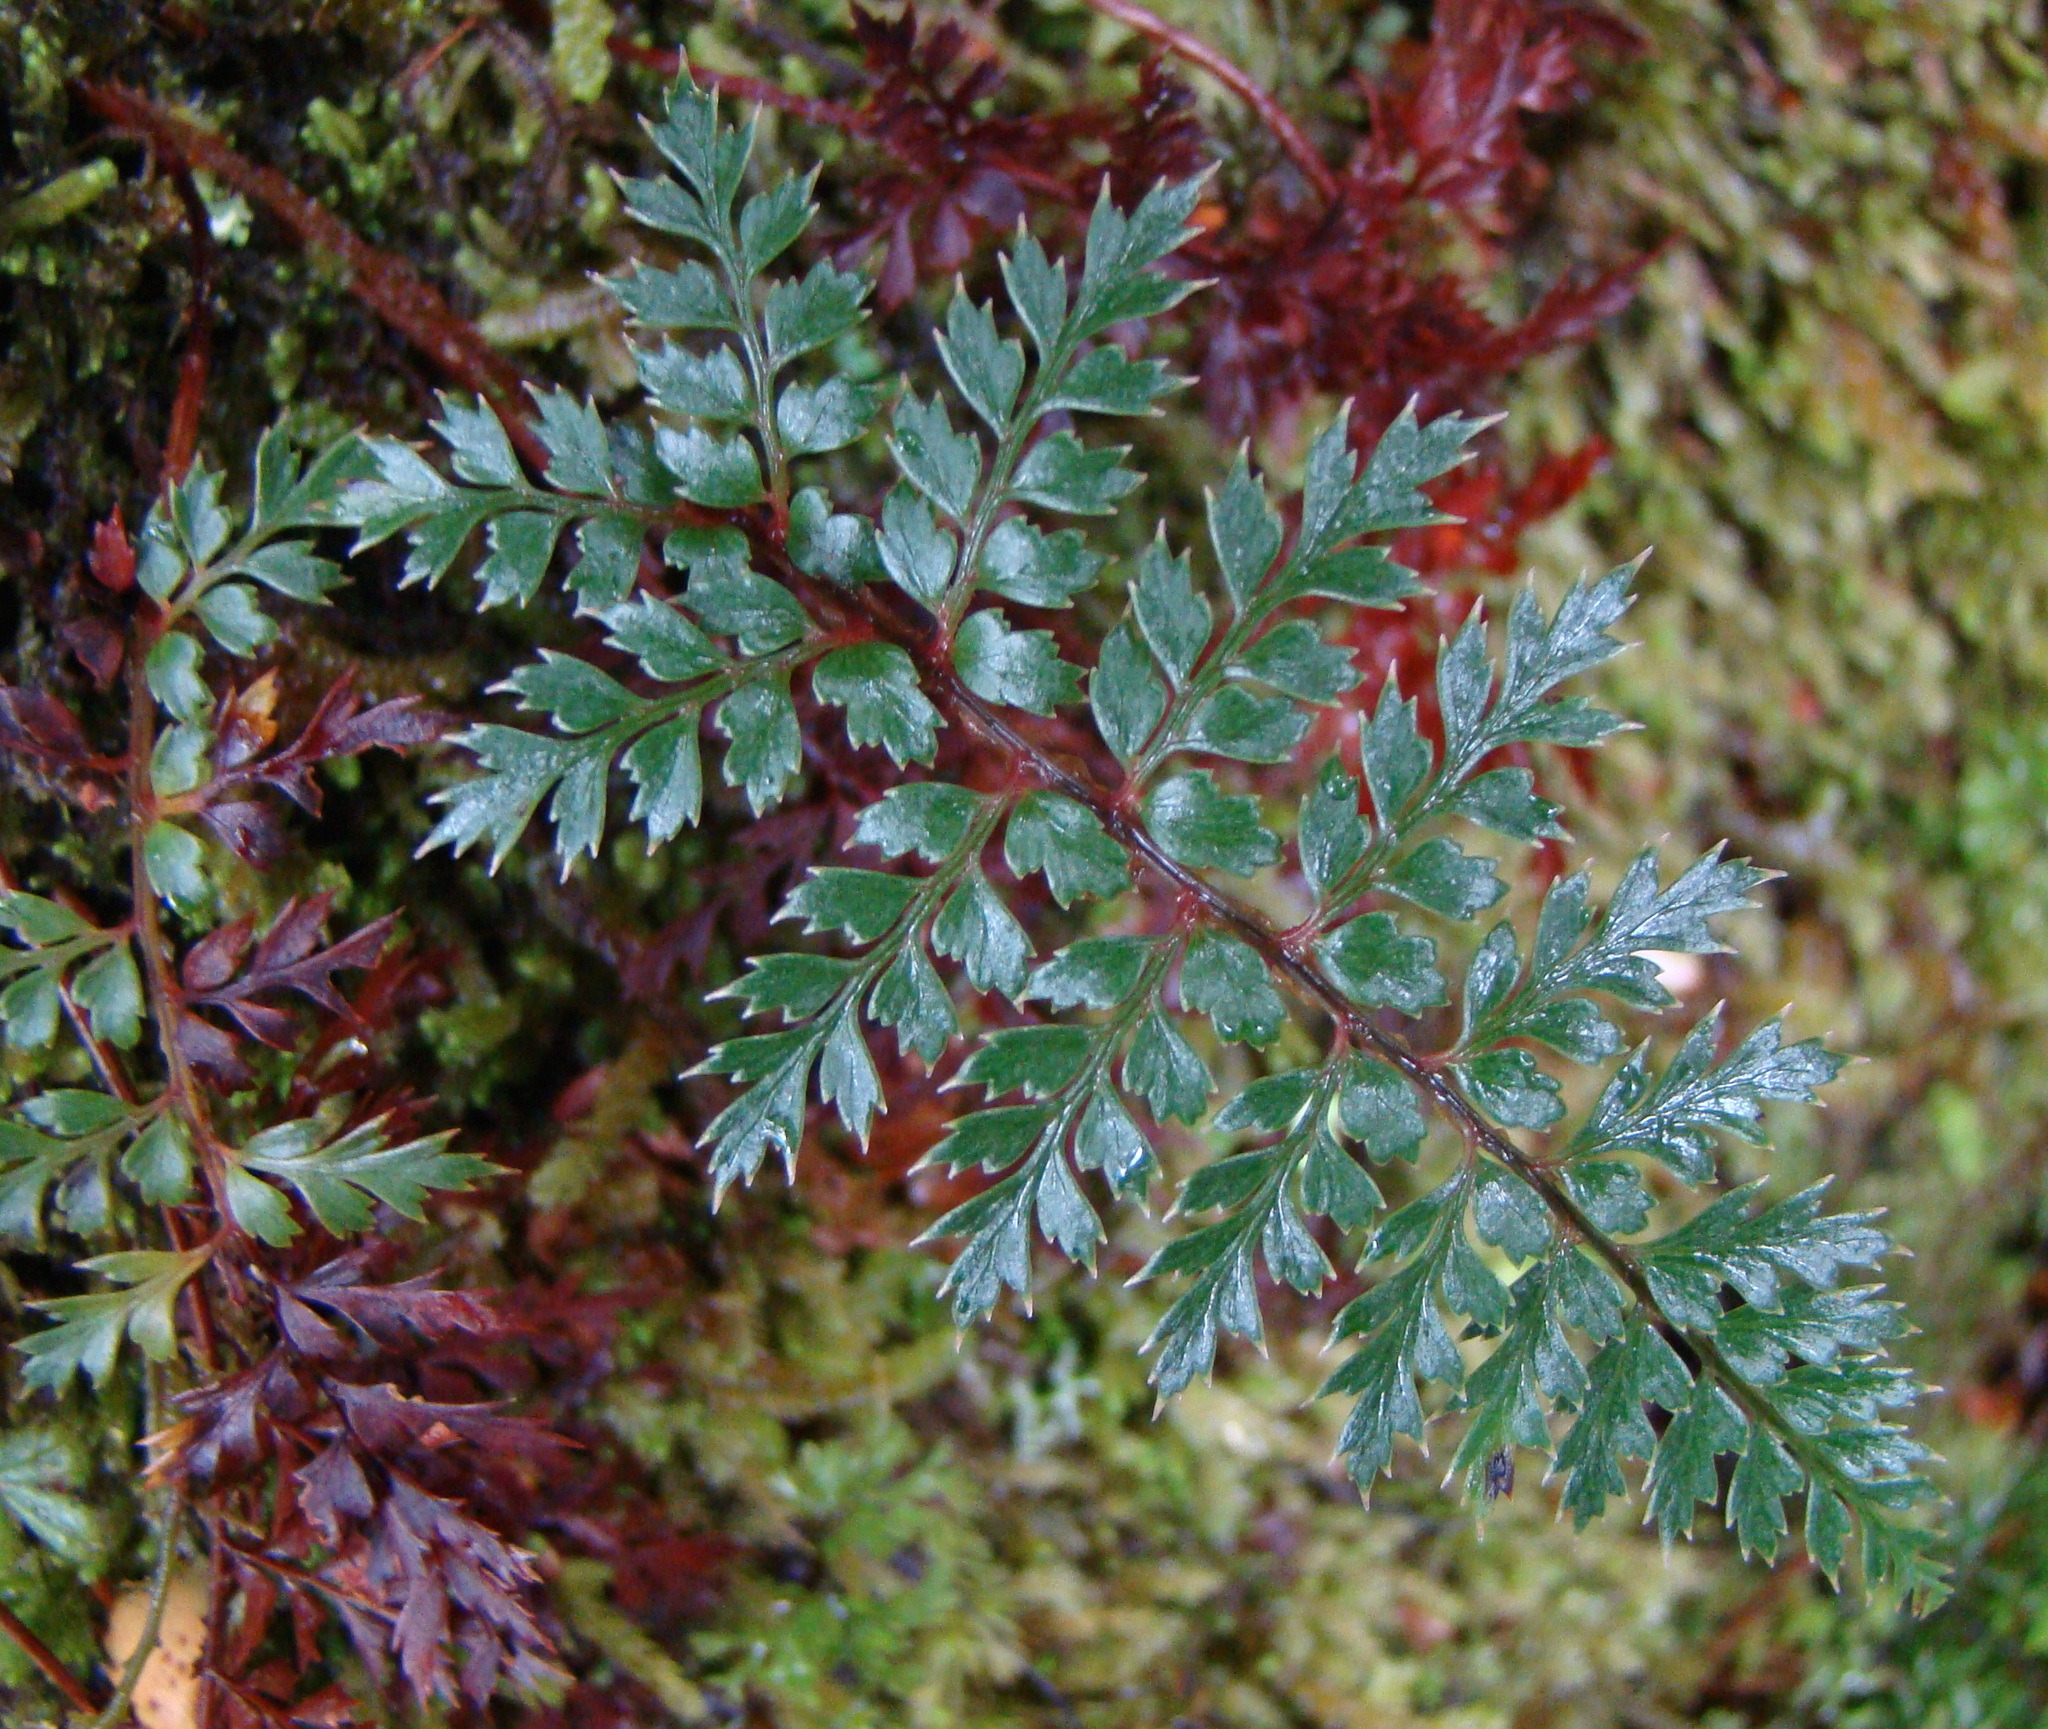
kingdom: Plantae
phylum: Tracheophyta
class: Polypodiopsida
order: Polypodiales
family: Dryopteridaceae
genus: Polystichum
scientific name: Polystichum vestitum
